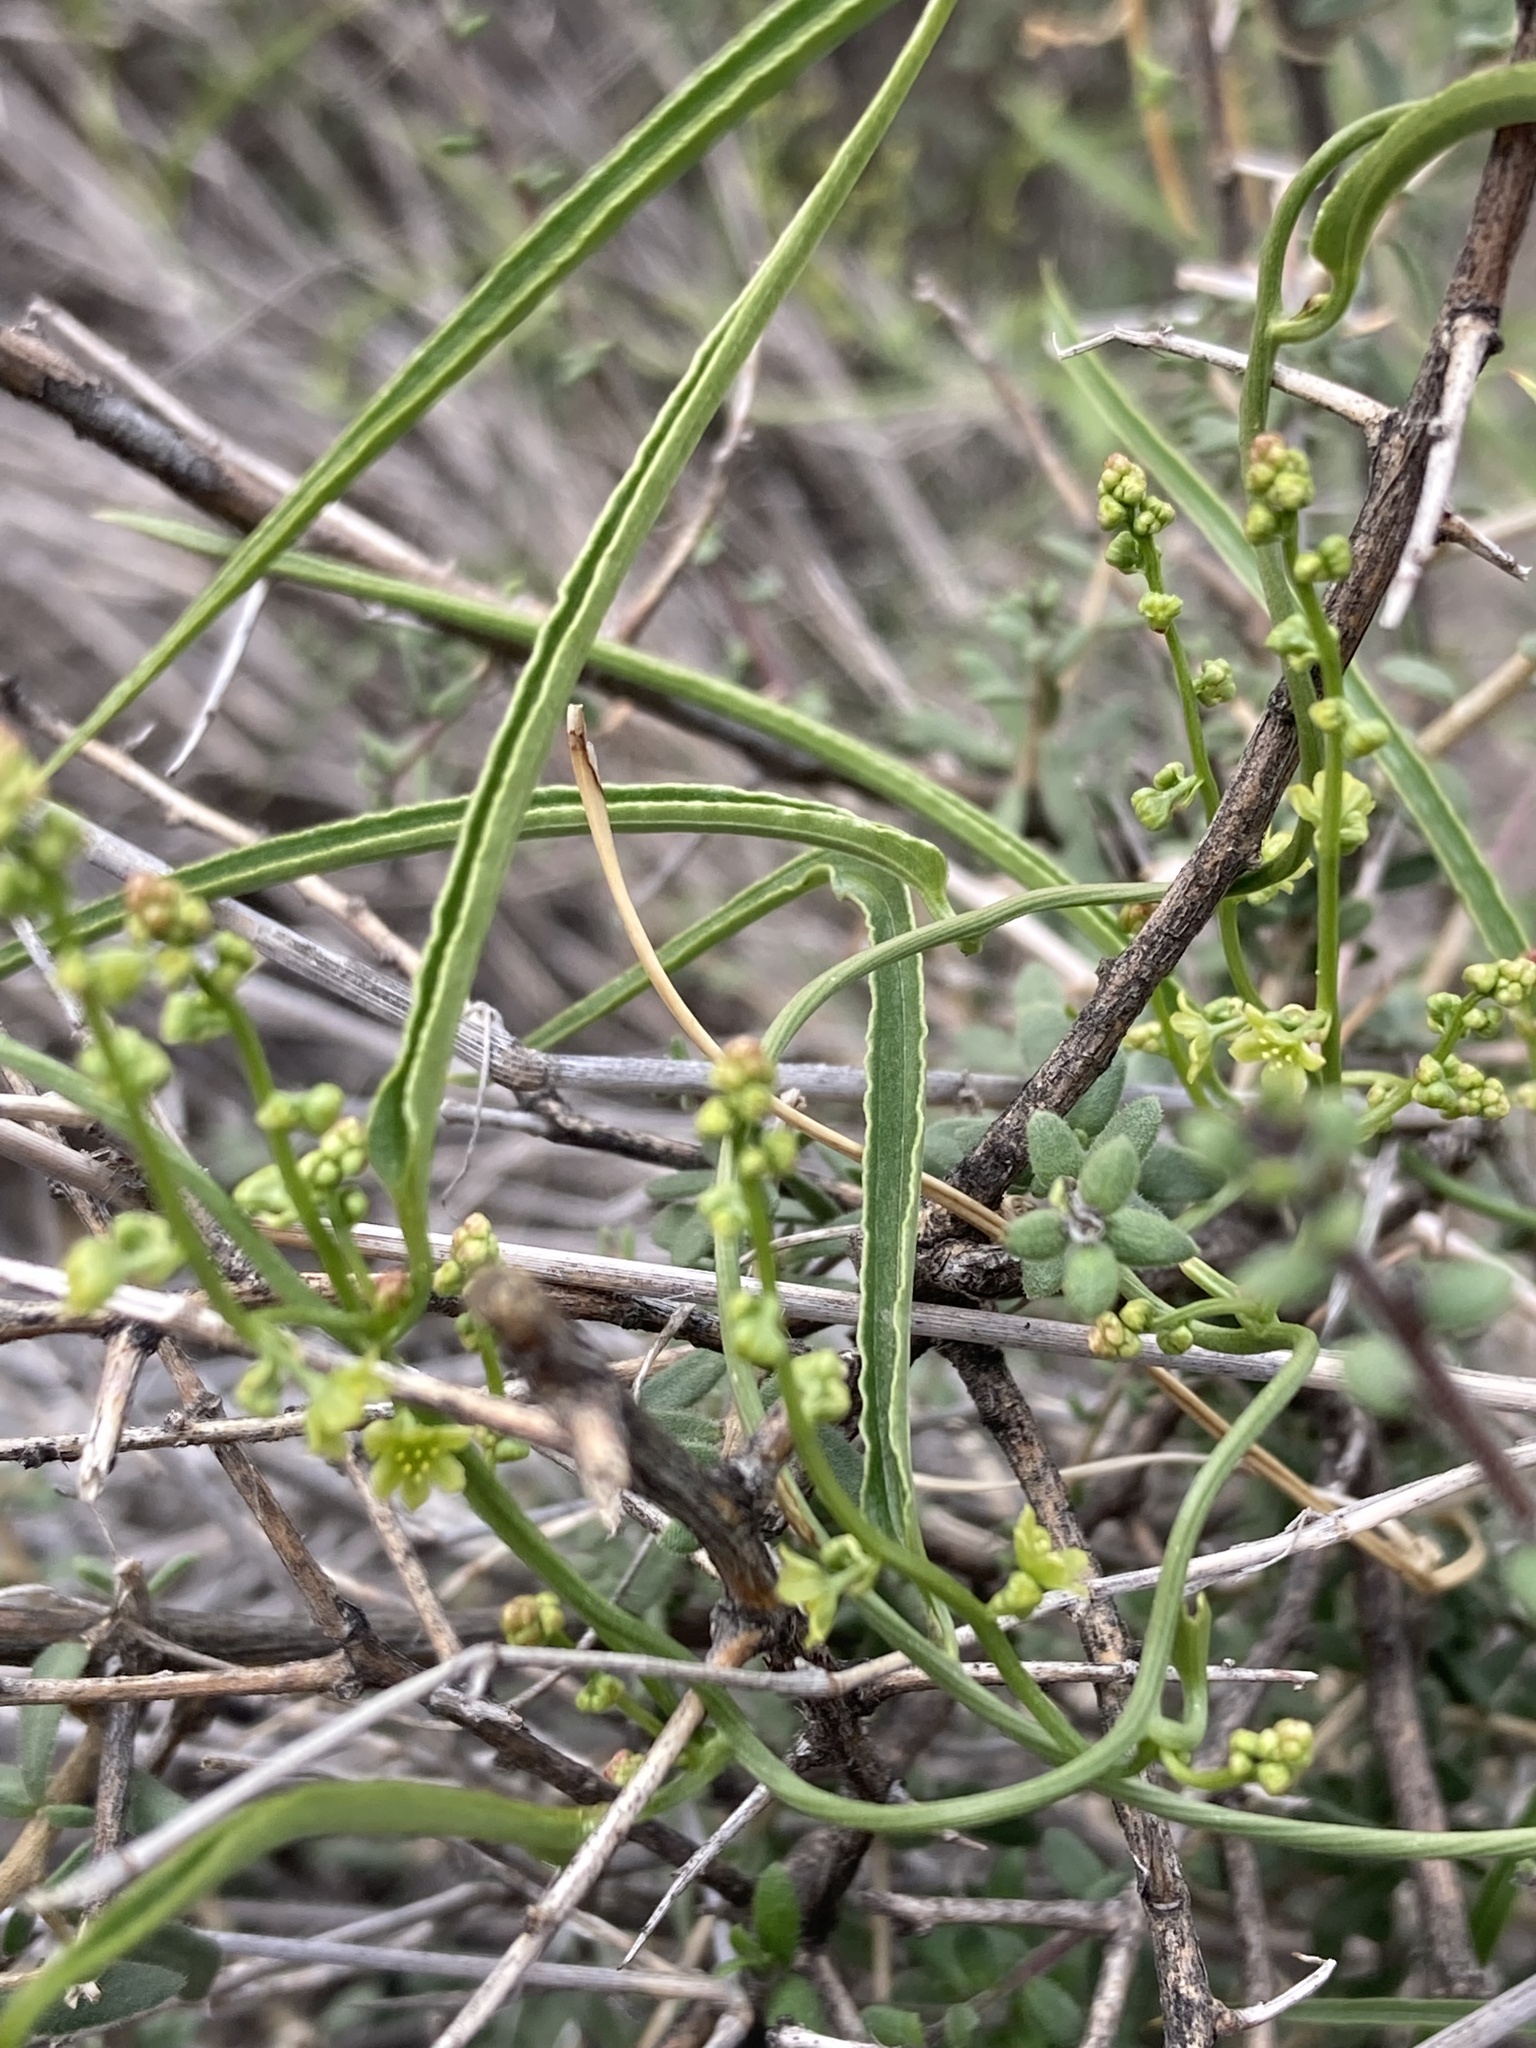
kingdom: Plantae
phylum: Tracheophyta
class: Liliopsida
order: Dioscoreales
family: Dioscoreaceae
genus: Dioscorea
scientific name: Dioscorea saxatilis
